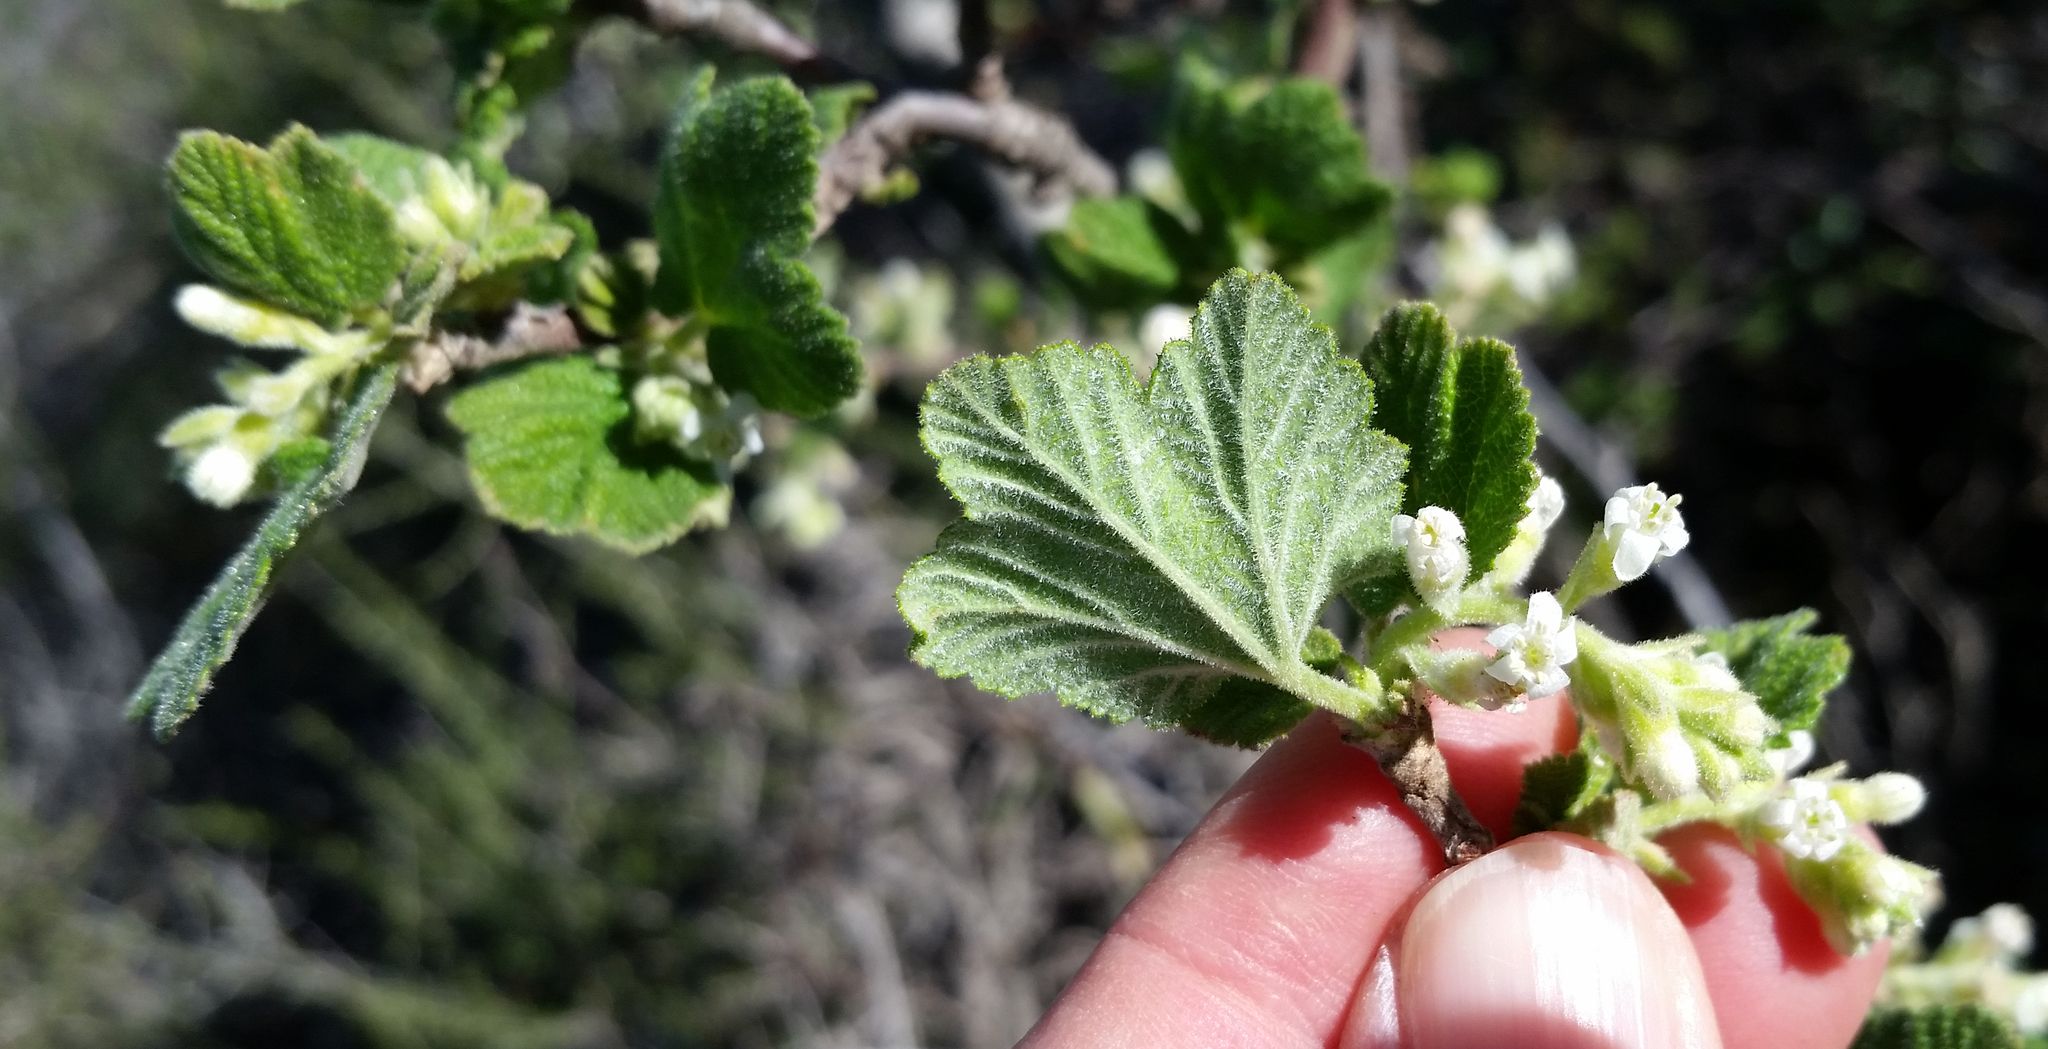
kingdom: Plantae
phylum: Tracheophyta
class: Magnoliopsida
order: Saxifragales
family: Grossulariaceae
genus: Ribes
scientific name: Ribes indecorum
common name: White-flower currant
